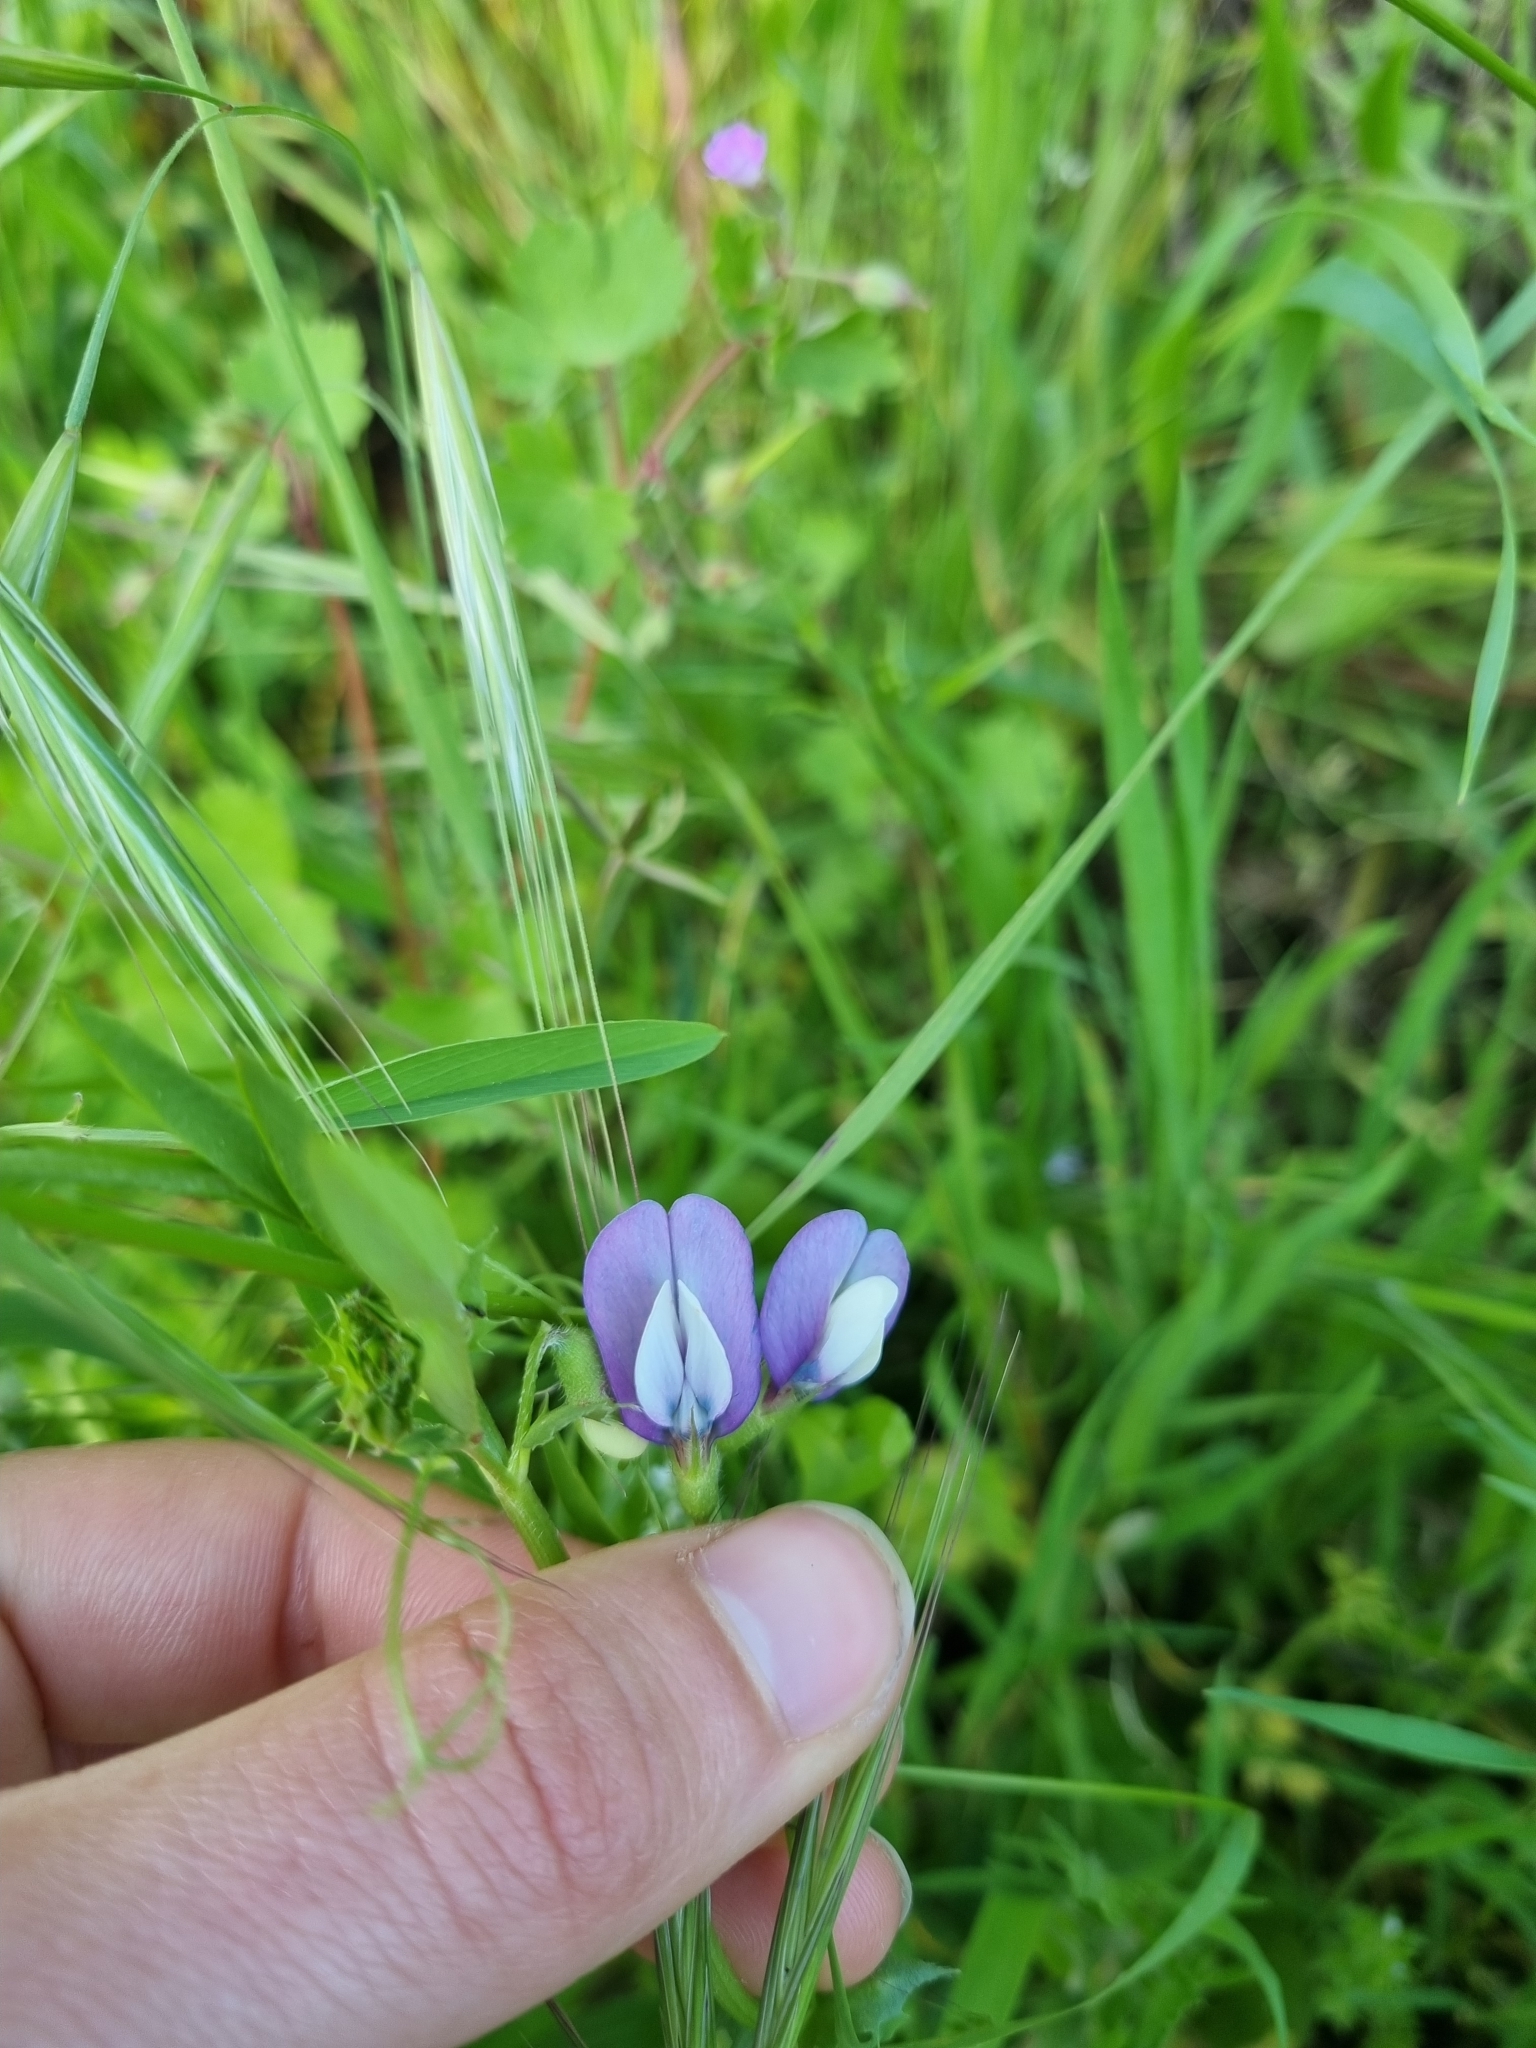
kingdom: Plantae
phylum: Tracheophyta
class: Magnoliopsida
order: Fabales
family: Fabaceae
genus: Vicia
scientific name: Vicia bithynica
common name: Bithynian vetch
